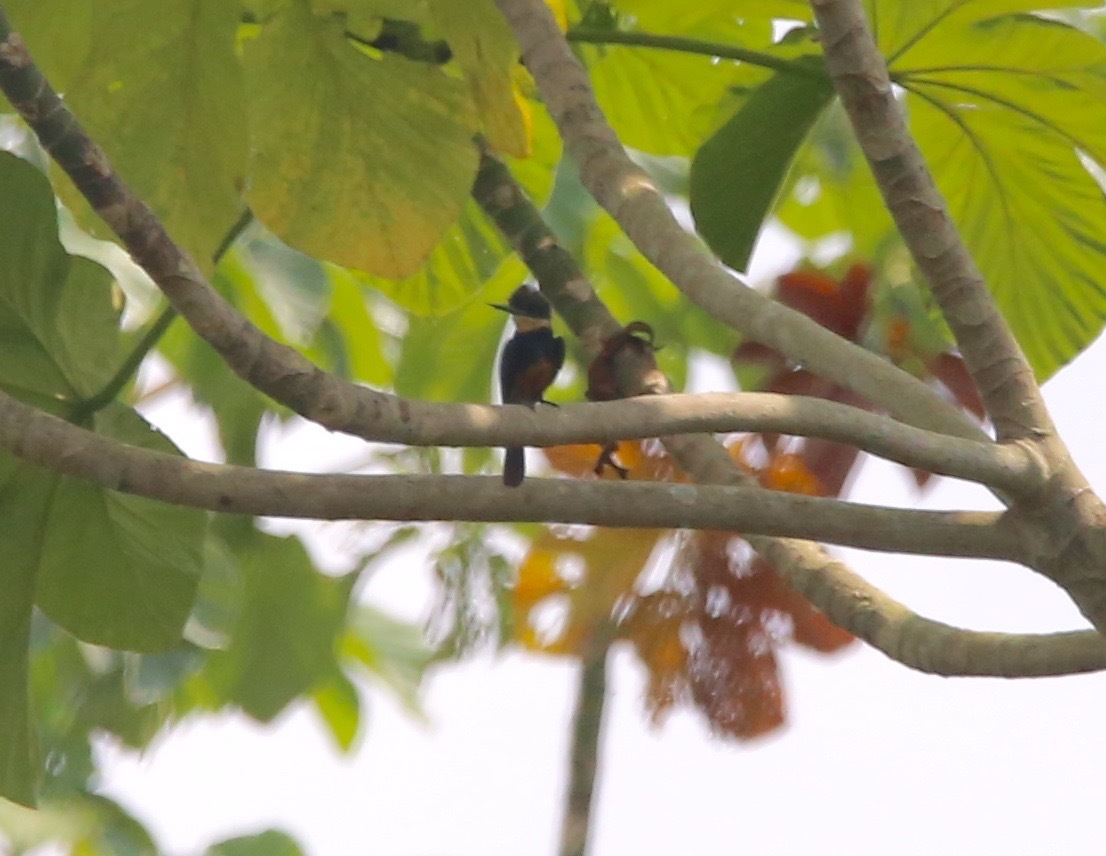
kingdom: Animalia
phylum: Chordata
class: Aves
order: Piciformes
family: Galbulidae
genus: Brachygalba
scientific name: Brachygalba salmoni
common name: Dusky-backed jacamar
